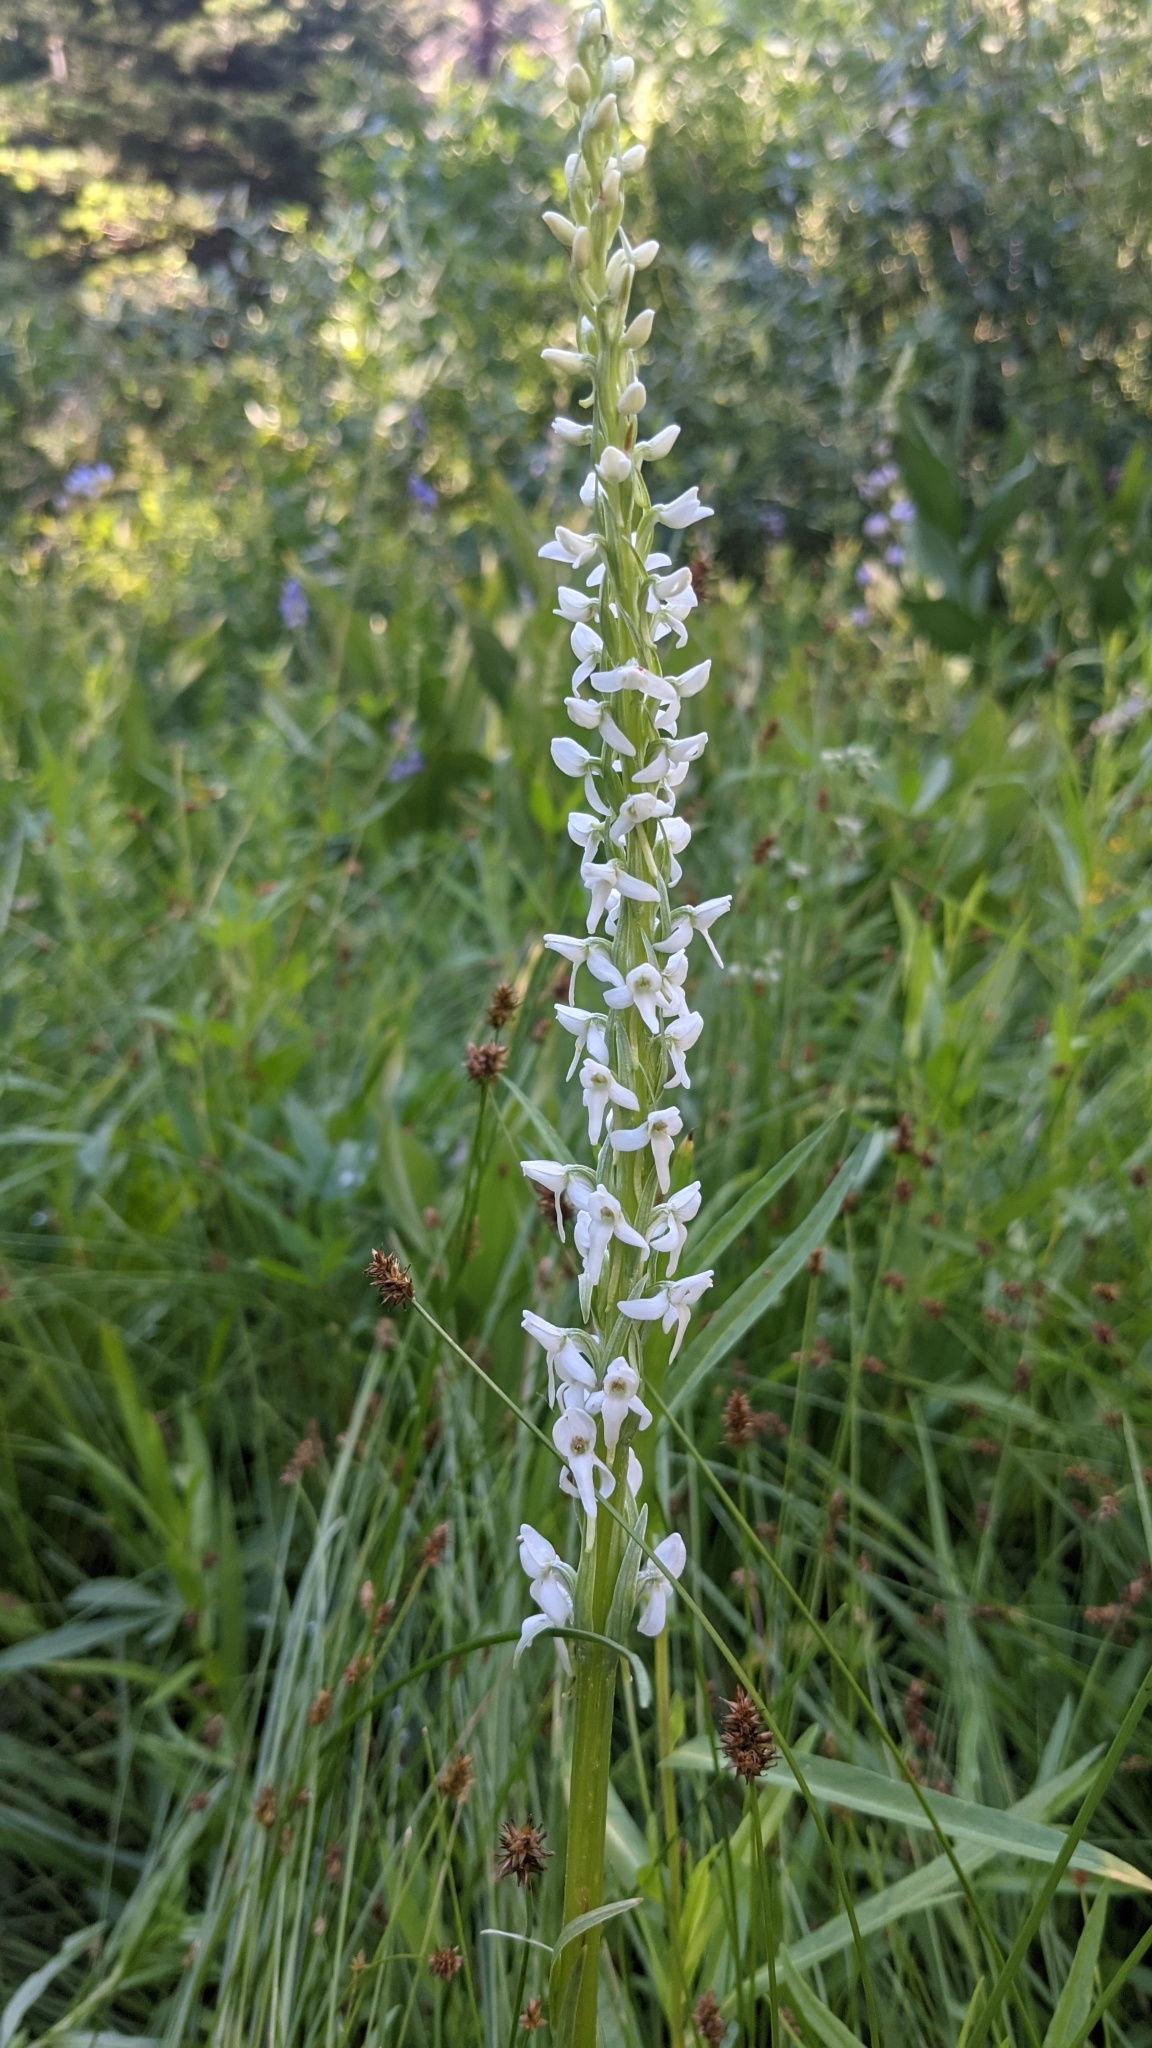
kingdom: Plantae
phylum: Tracheophyta
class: Liliopsida
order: Asparagales
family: Orchidaceae
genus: Platanthera
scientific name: Platanthera dilatata
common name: Bog candles
